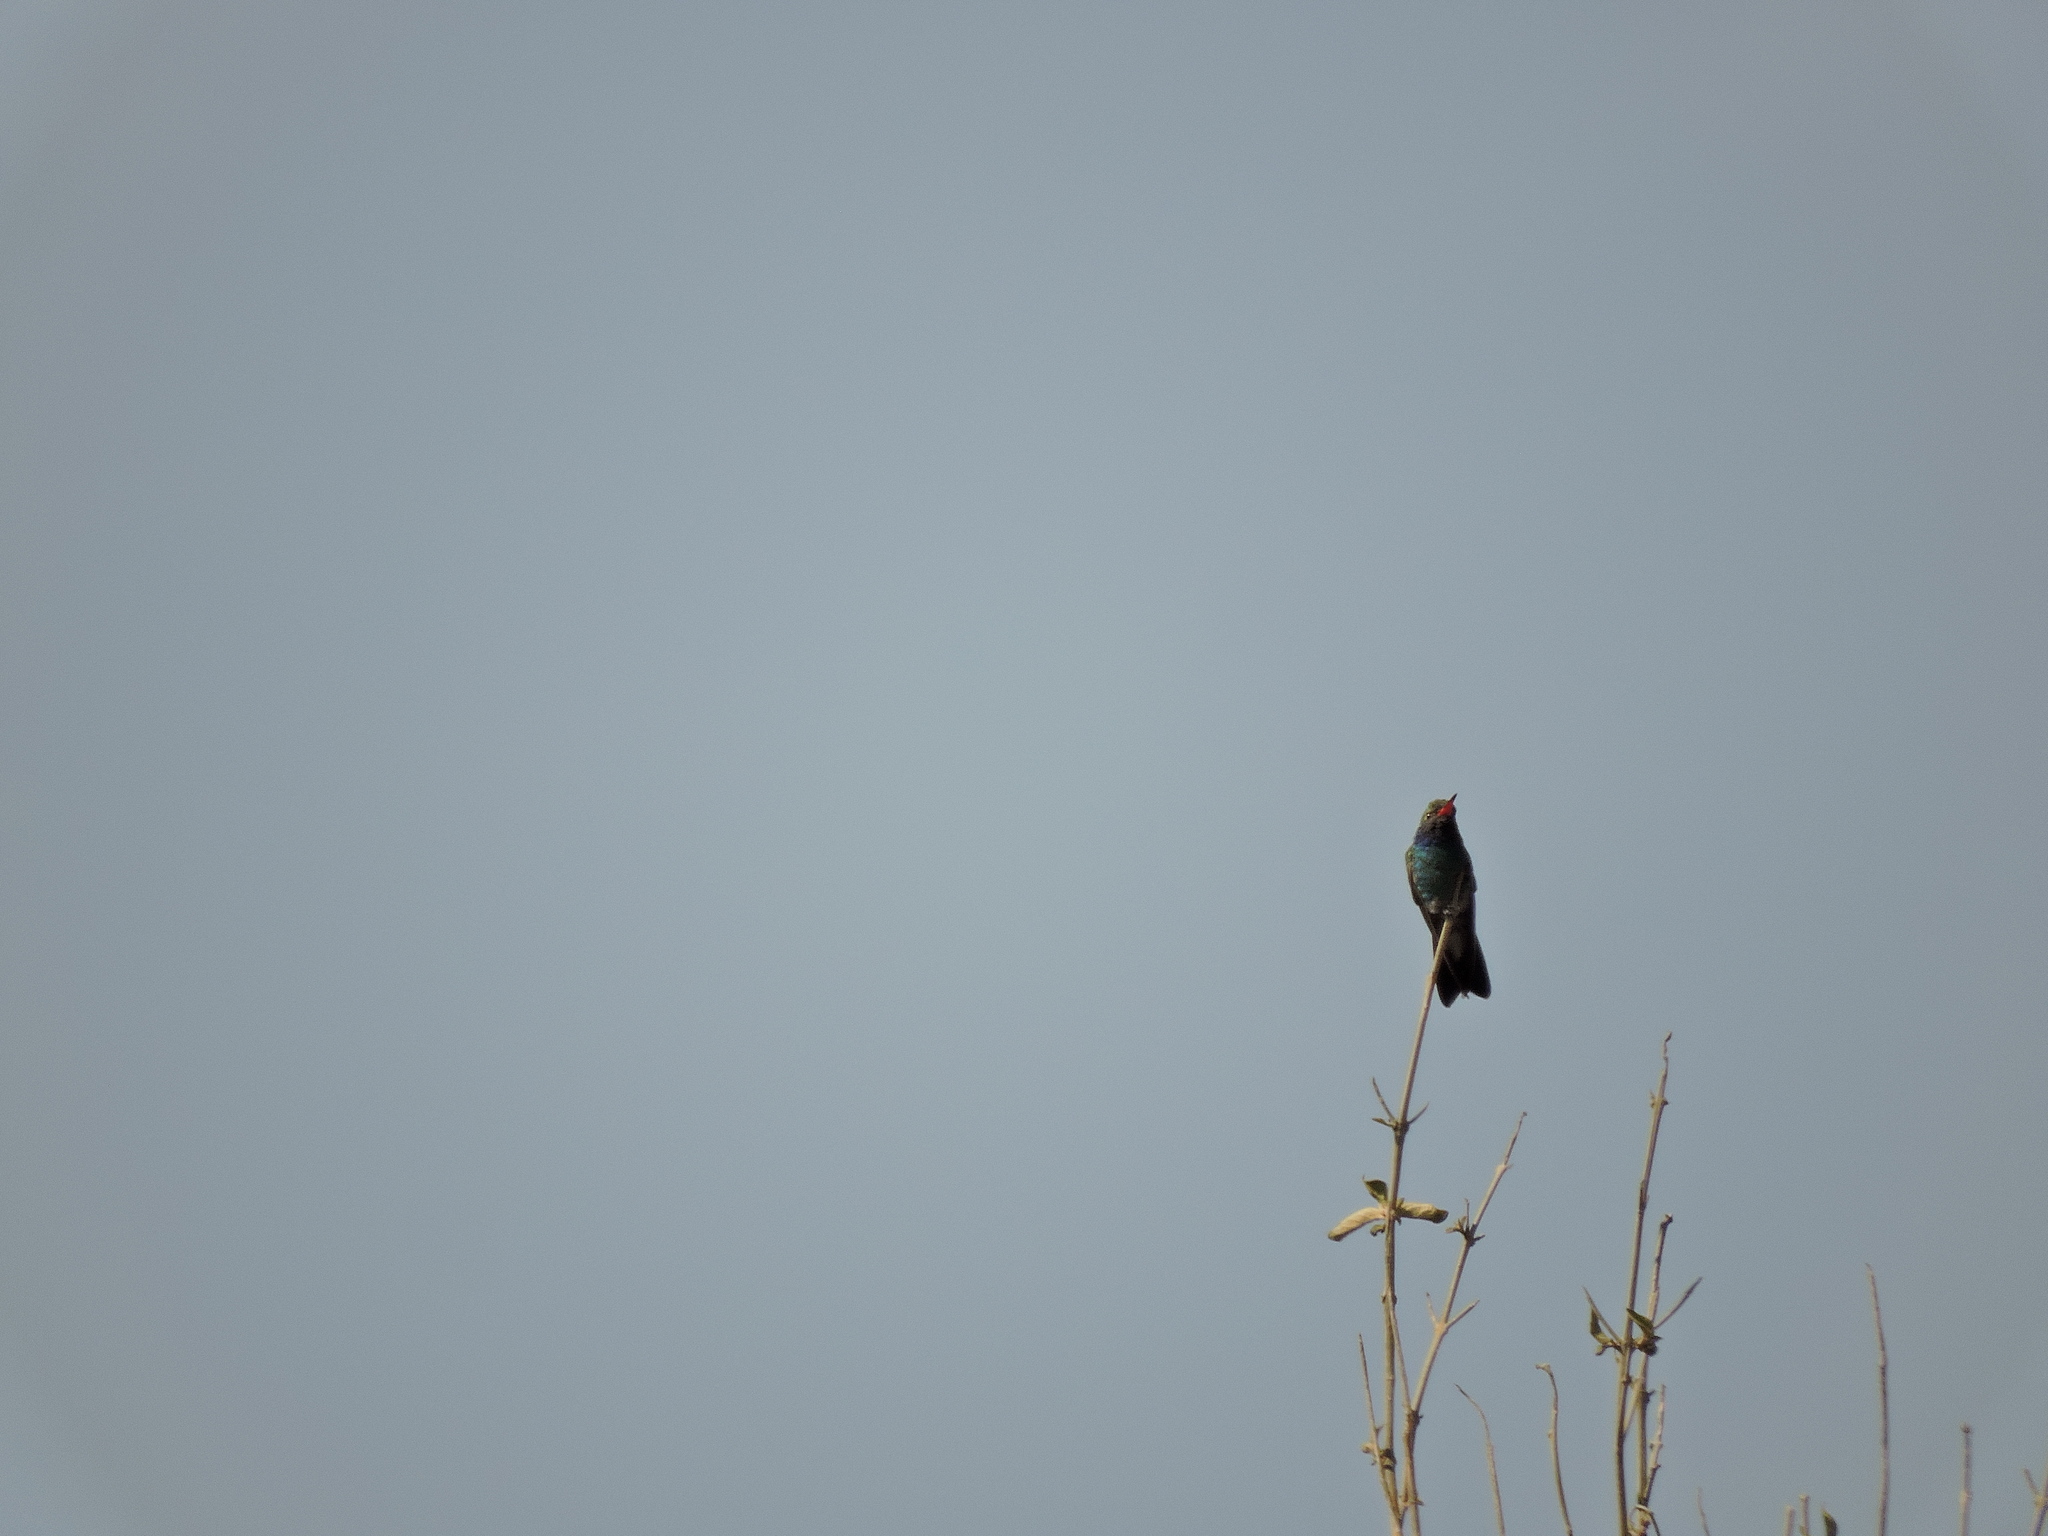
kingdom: Animalia
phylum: Chordata
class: Aves
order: Apodiformes
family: Trochilidae
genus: Cynanthus
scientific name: Cynanthus latirostris
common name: Broad-billed hummingbird
